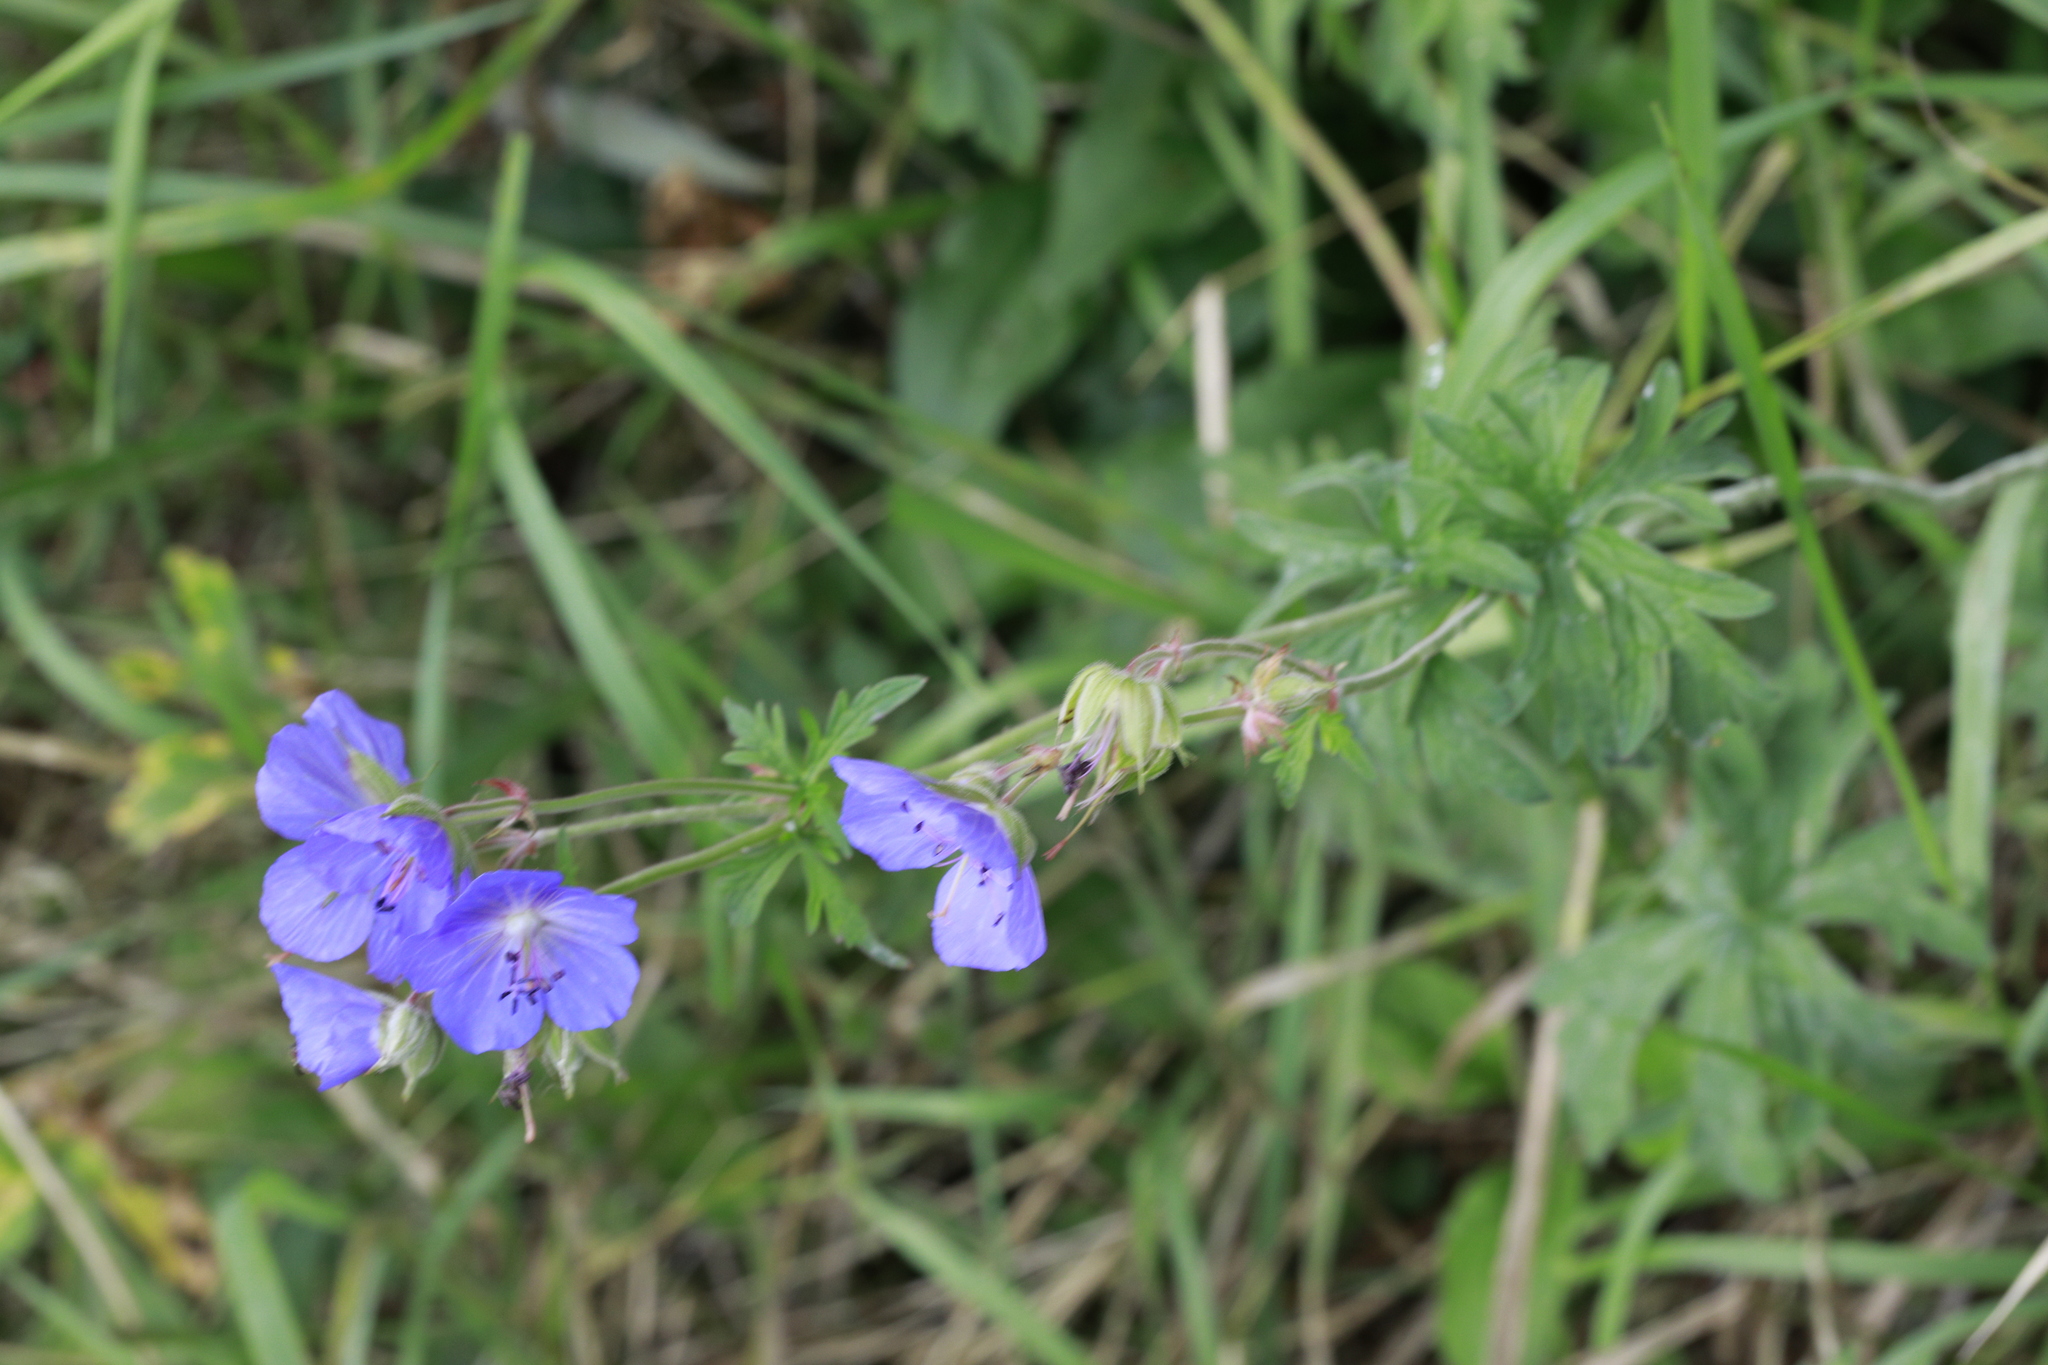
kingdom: Plantae
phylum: Tracheophyta
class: Magnoliopsida
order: Geraniales
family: Geraniaceae
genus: Geranium
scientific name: Geranium pratense
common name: Meadow crane's-bill
